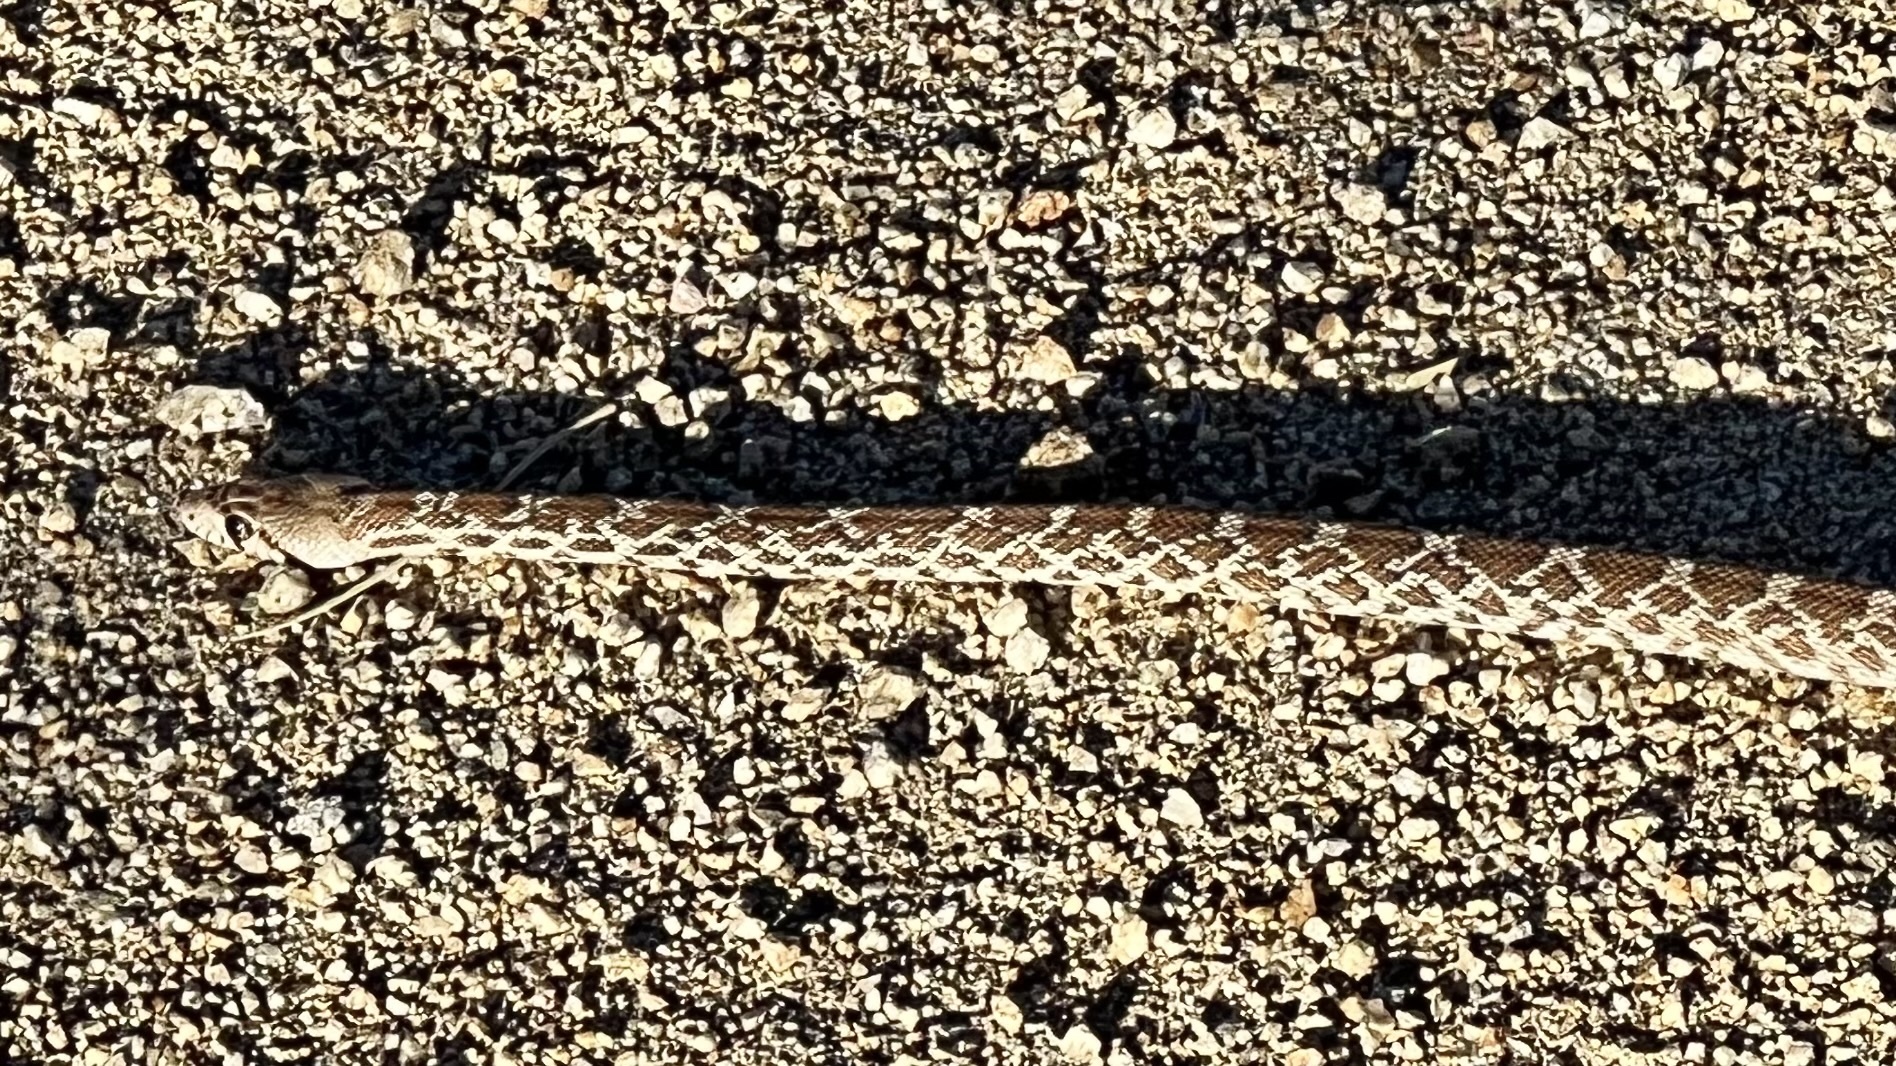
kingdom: Animalia
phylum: Chordata
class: Squamata
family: Colubridae
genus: Pituophis
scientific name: Pituophis catenifer
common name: Gopher snake
